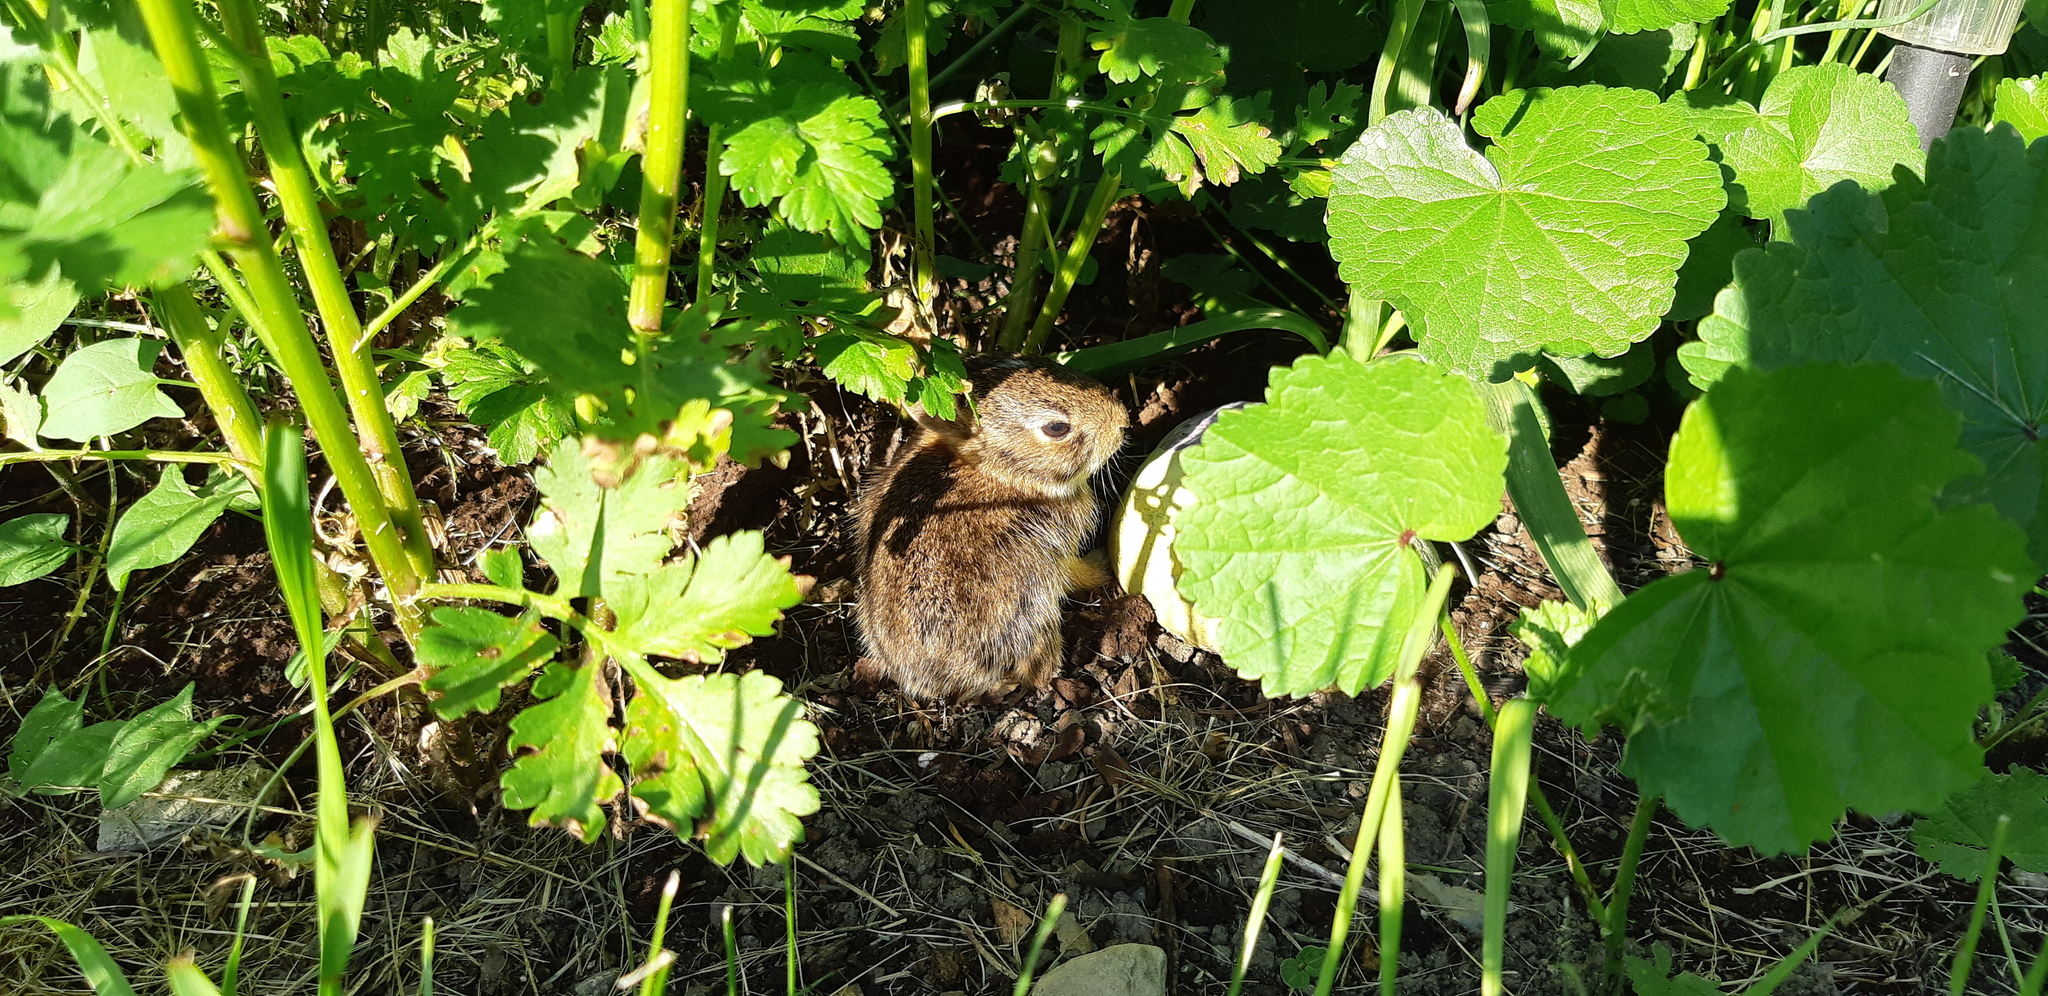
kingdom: Animalia
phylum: Chordata
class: Mammalia
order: Lagomorpha
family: Leporidae
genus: Sylvilagus
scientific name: Sylvilagus floridanus
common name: Eastern cottontail
